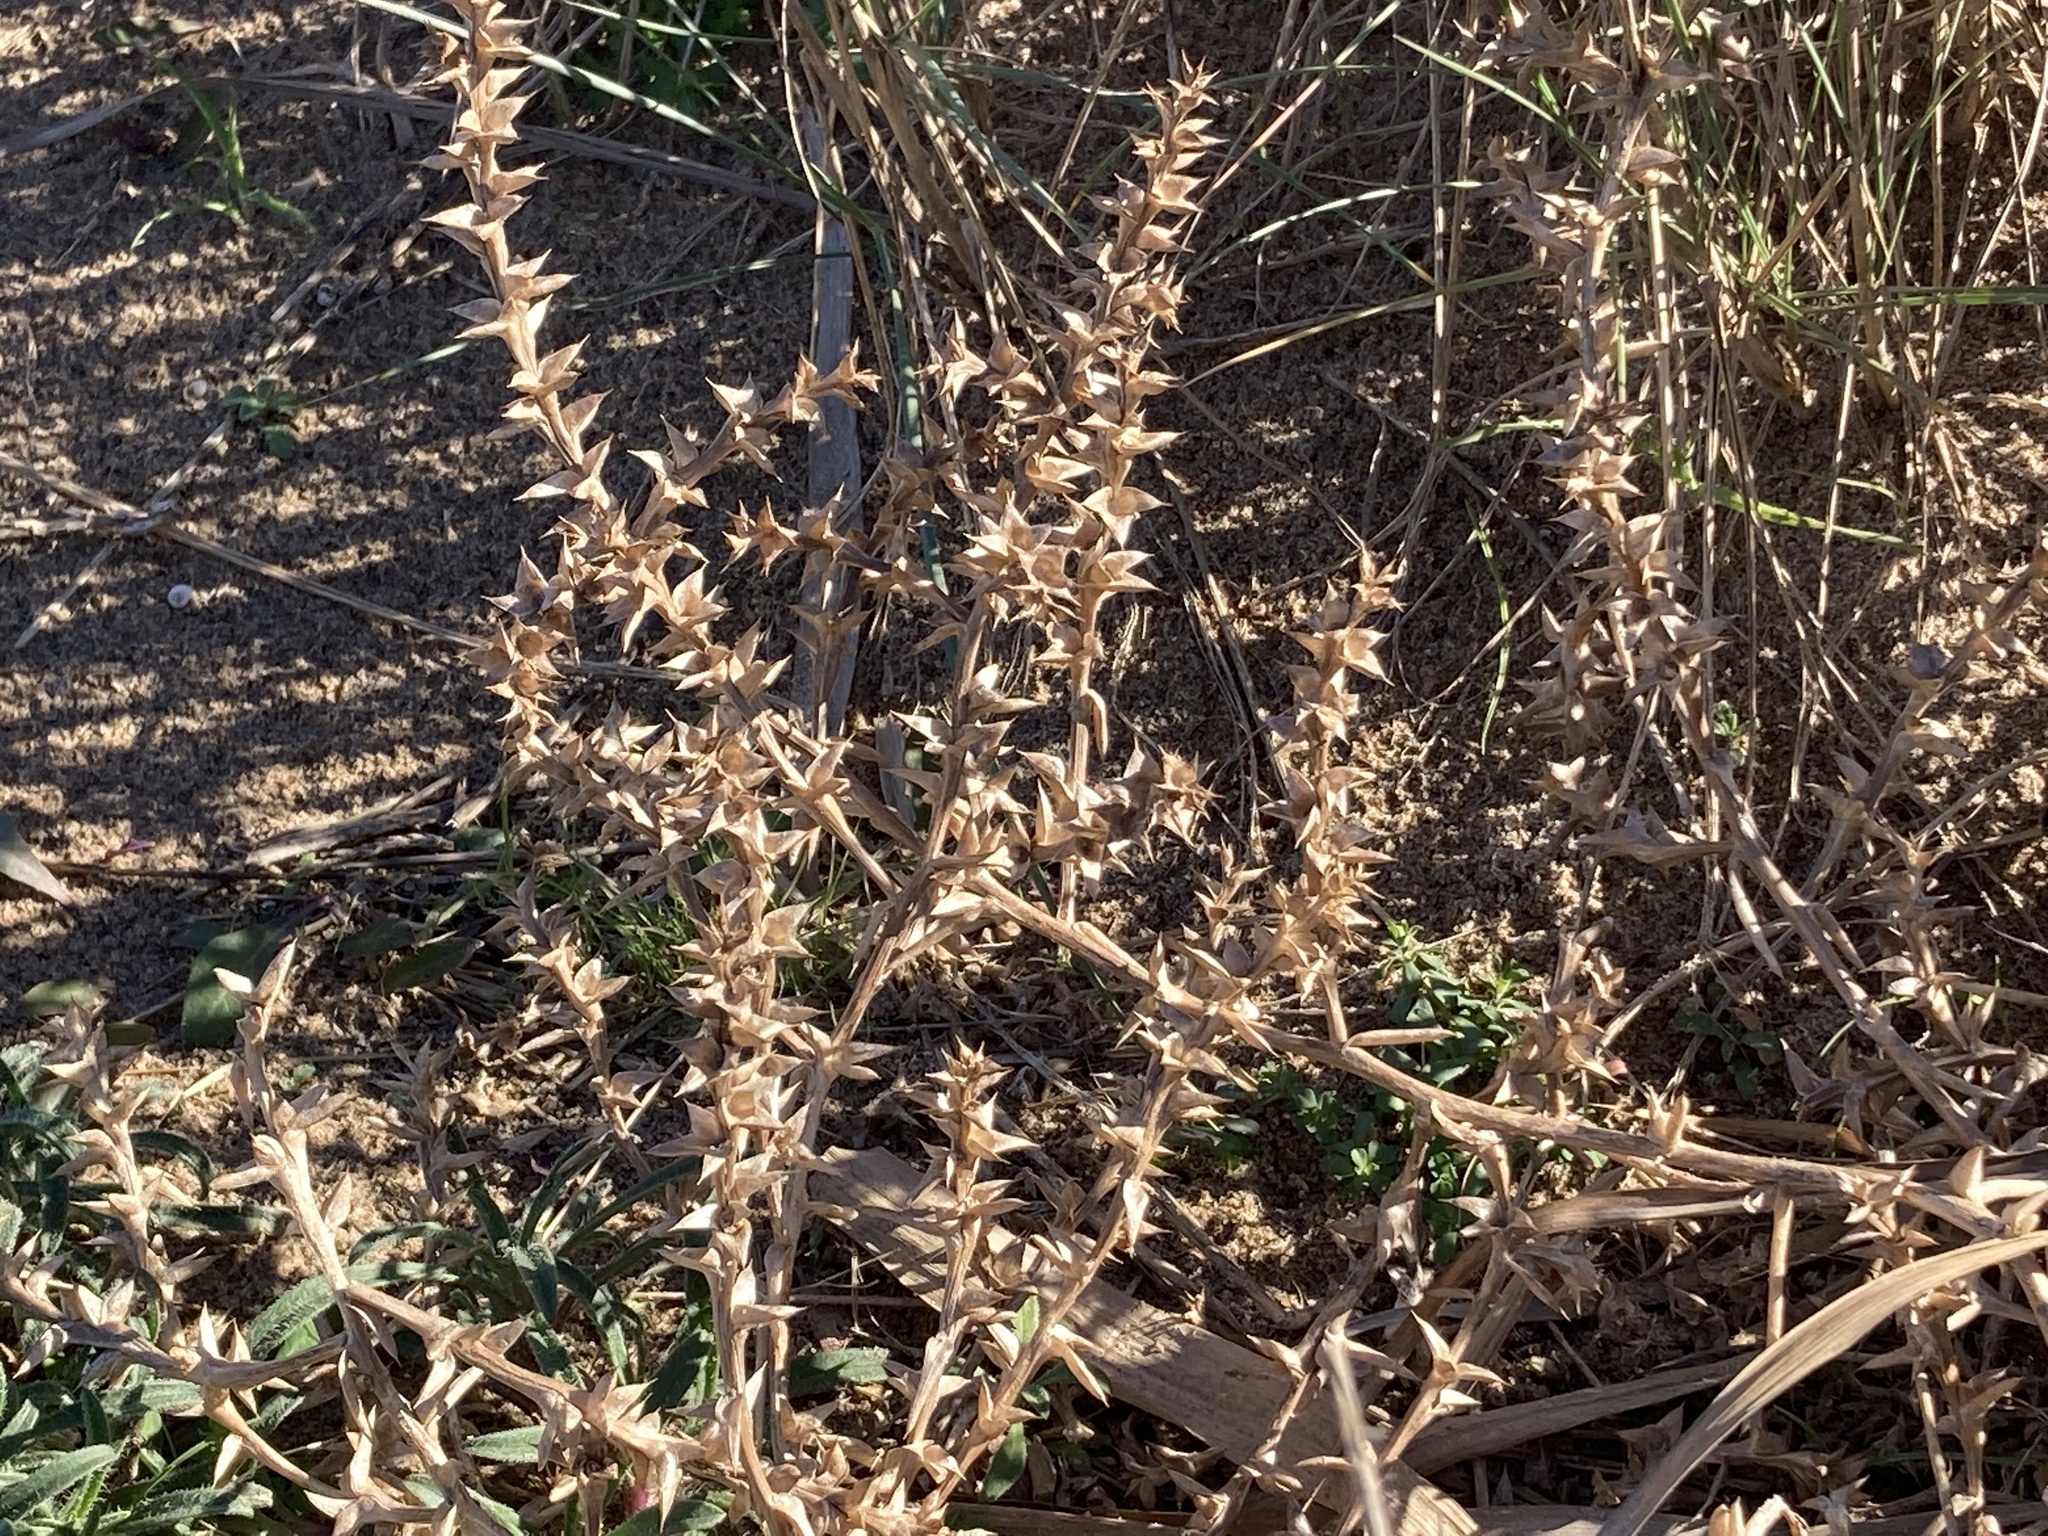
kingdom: Plantae
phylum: Tracheophyta
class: Magnoliopsida
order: Caryophyllales
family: Amaranthaceae
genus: Salsola
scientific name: Salsola kali
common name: Saltwort
